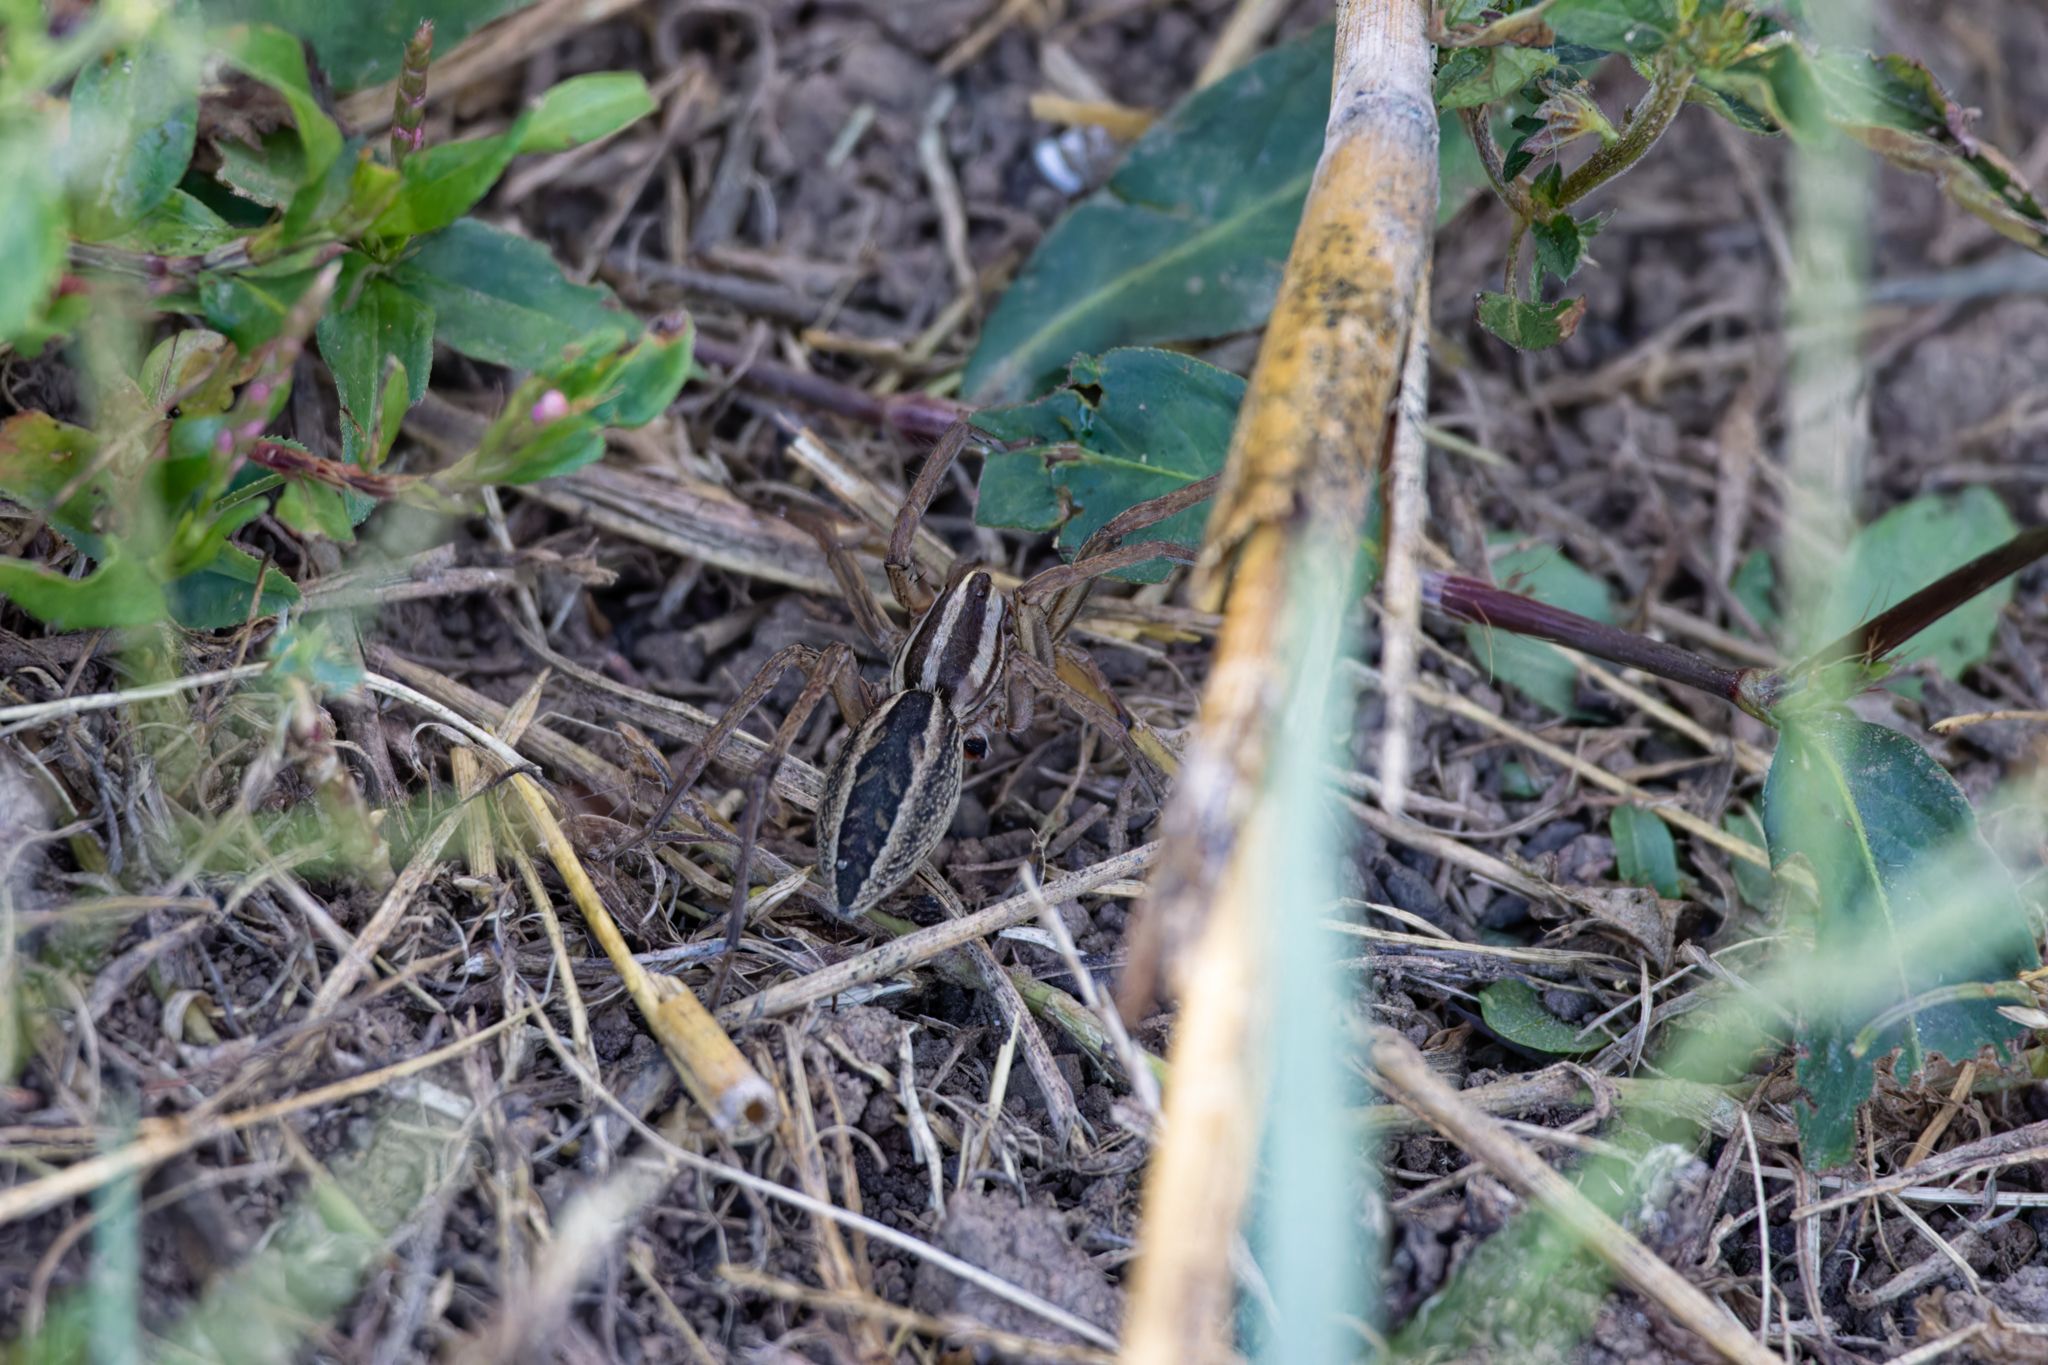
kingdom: Animalia
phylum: Arthropoda
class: Arachnida
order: Araneae
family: Lycosidae
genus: Rabidosa
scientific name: Rabidosa rabida
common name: Rabid wolf spider
